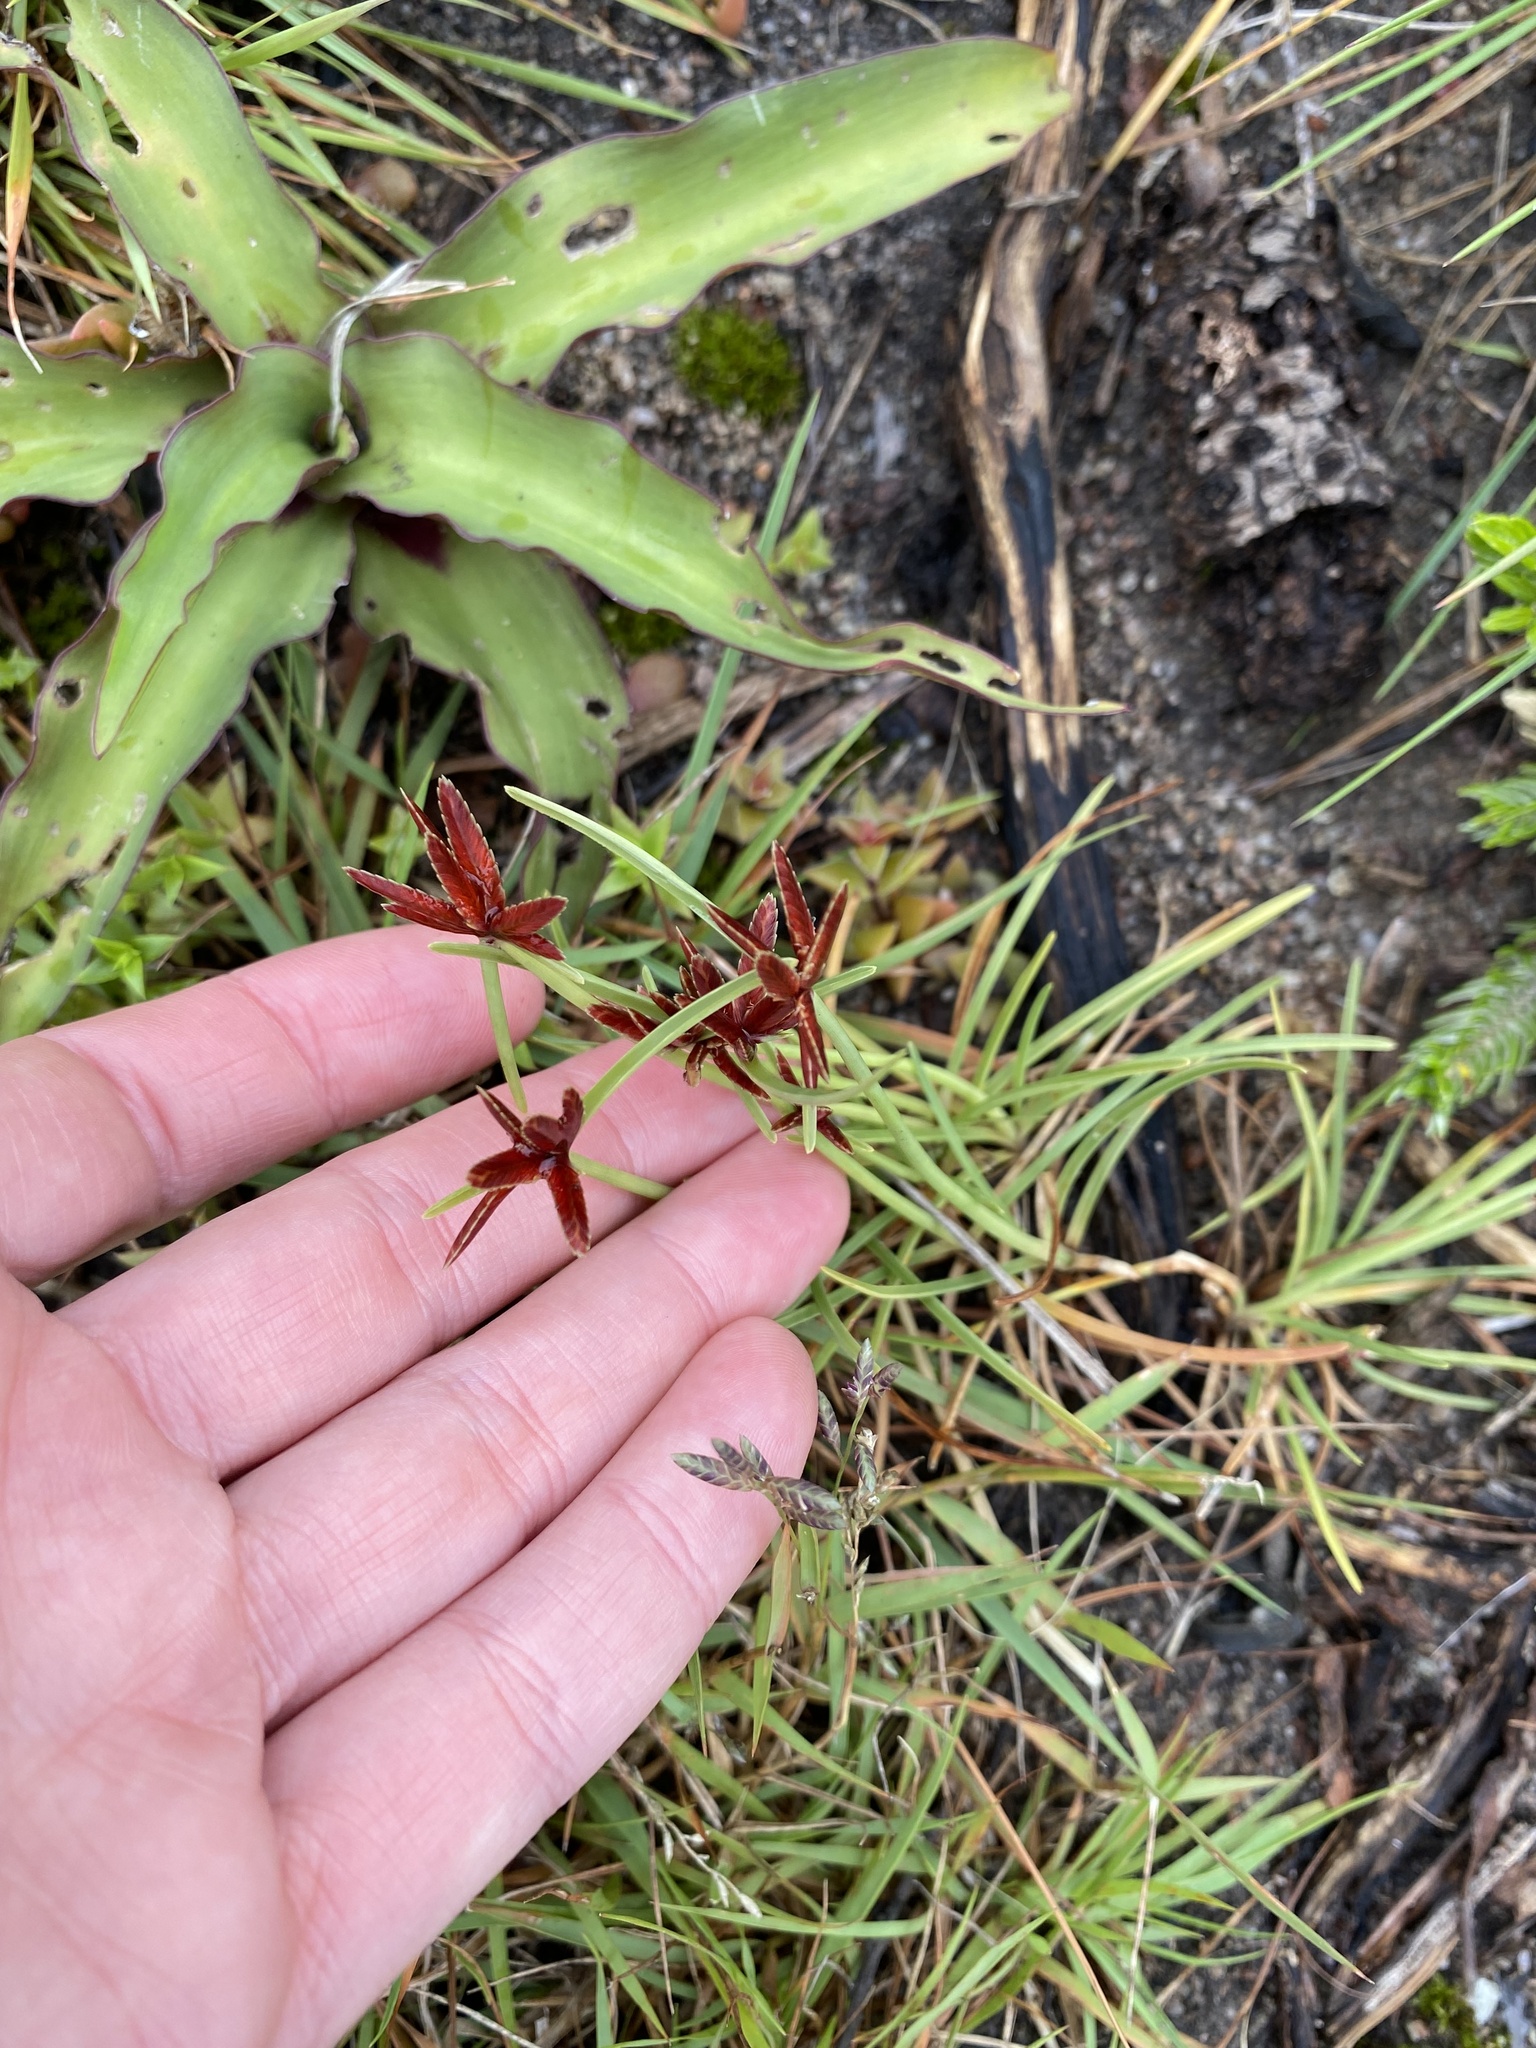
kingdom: Plantae
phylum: Tracheophyta
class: Liliopsida
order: Poales
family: Cyperaceae
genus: Cyperus
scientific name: Cyperus rupestris
